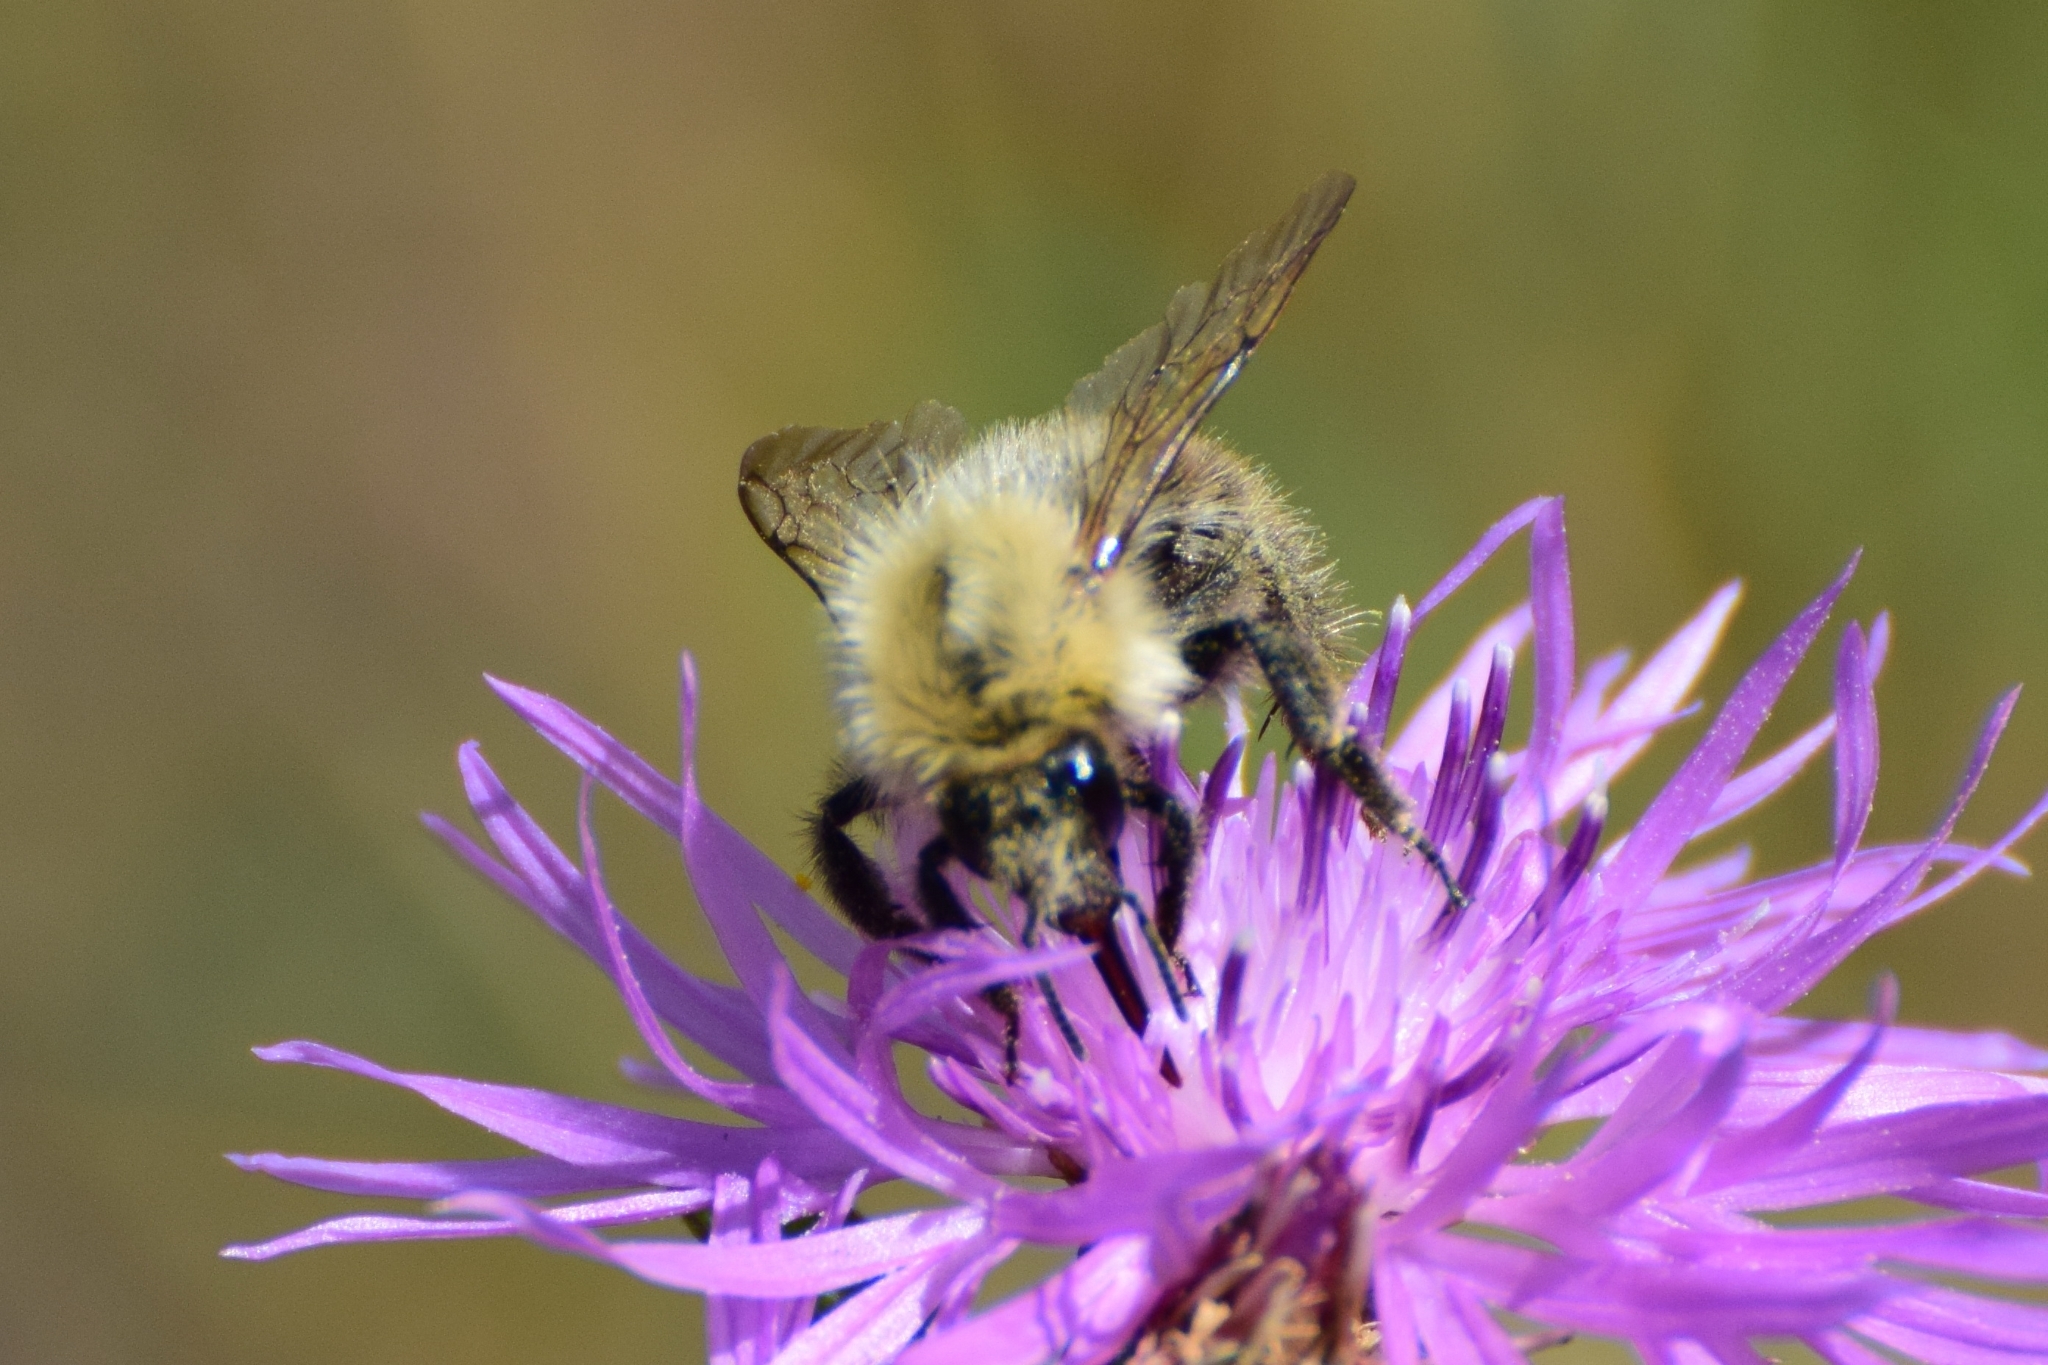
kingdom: Animalia
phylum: Arthropoda
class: Insecta
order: Hymenoptera
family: Apidae
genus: Bombus
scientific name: Bombus pascuorum
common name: Common carder bee
